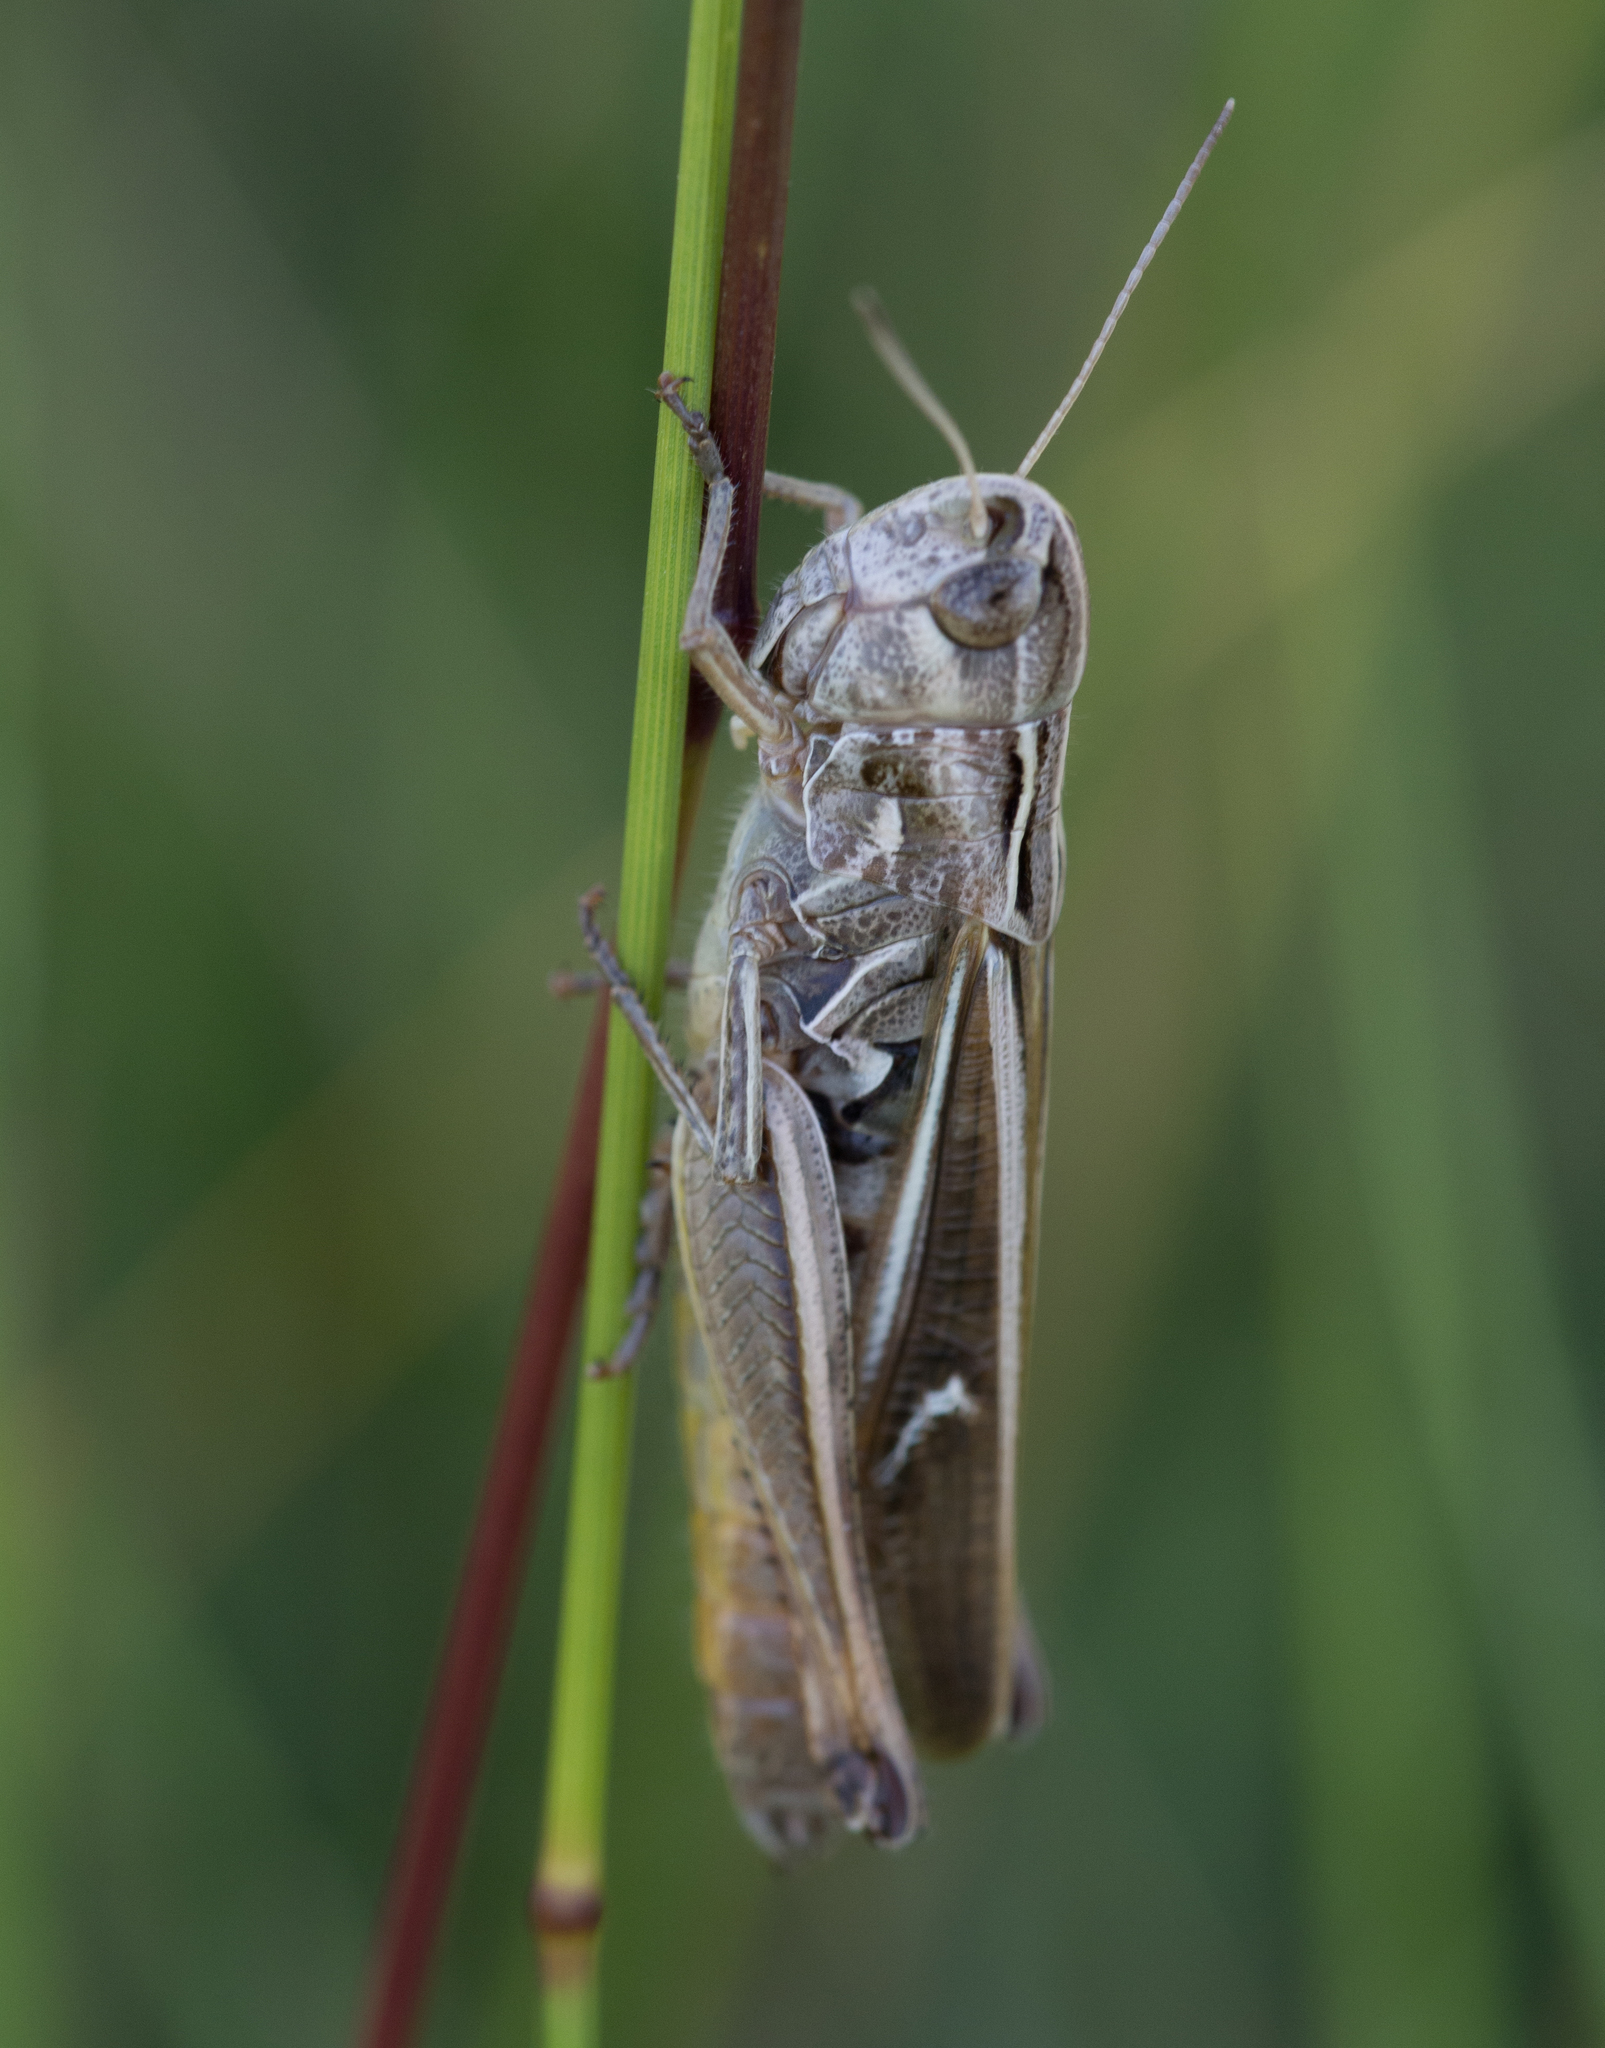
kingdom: Animalia
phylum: Arthropoda
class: Insecta
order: Orthoptera
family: Acrididae
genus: Stenobothrus
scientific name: Stenobothrus lineatus
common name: Stripe-winged grasshopper
